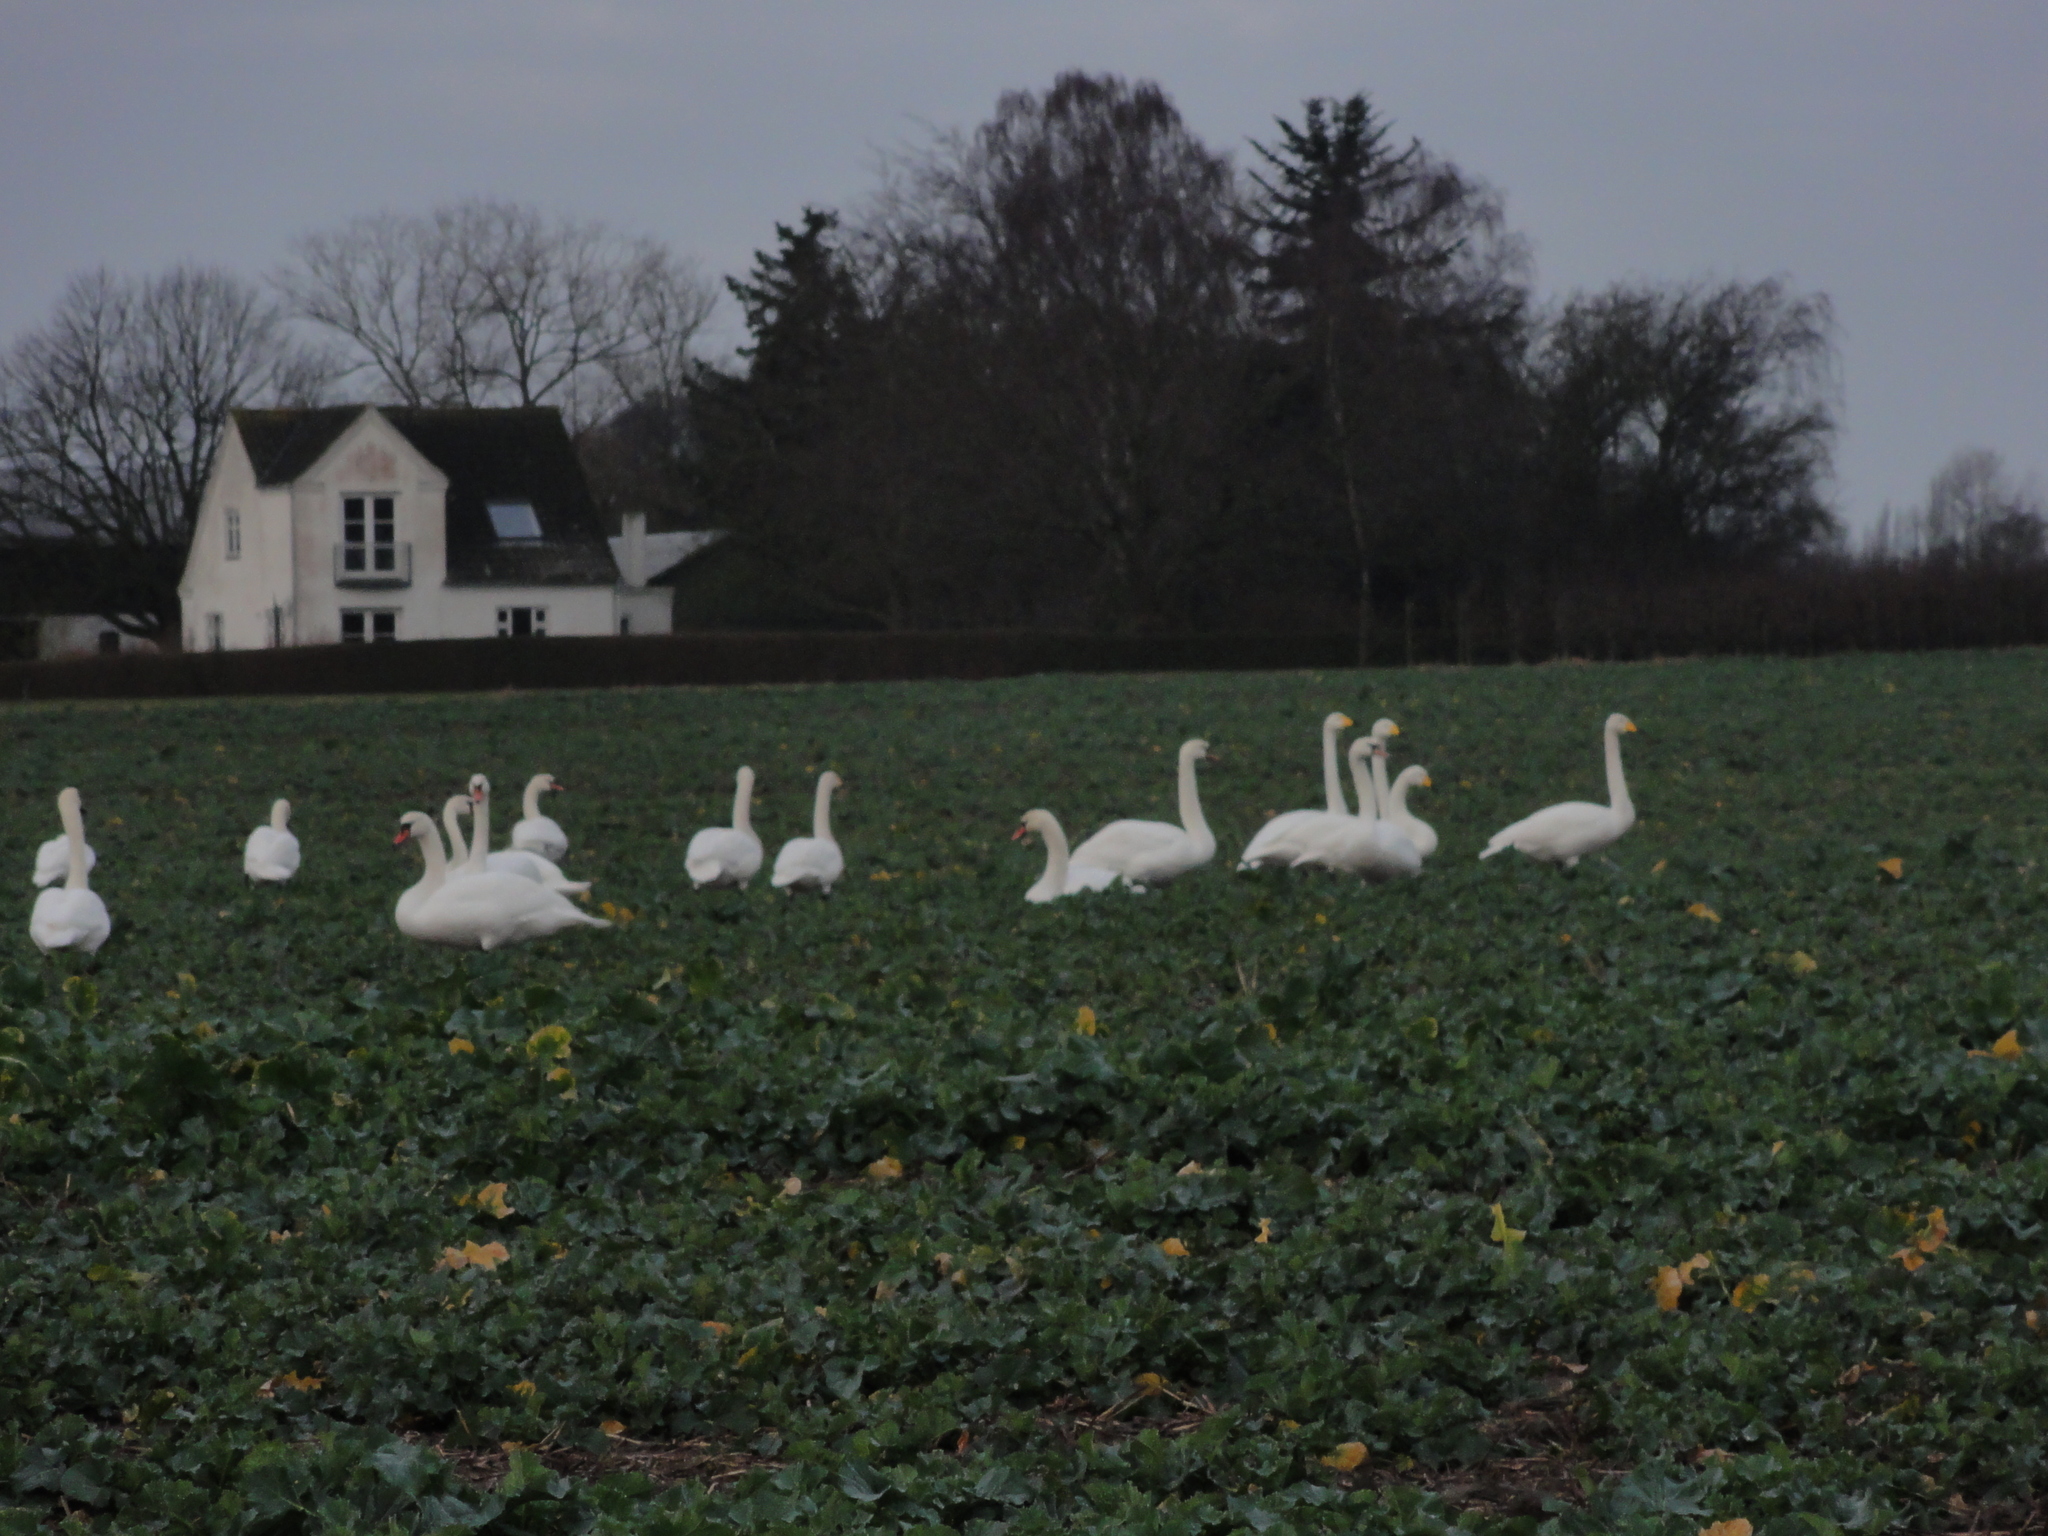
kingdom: Animalia
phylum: Chordata
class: Aves
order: Anseriformes
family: Anatidae
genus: Cygnus
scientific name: Cygnus cygnus
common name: Whooper swan
